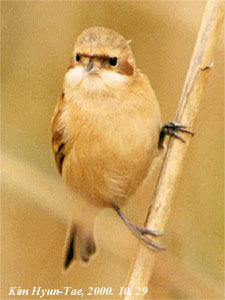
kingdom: Animalia
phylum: Chordata
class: Aves
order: Passeriformes
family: Remizidae
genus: Remiz
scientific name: Remiz
